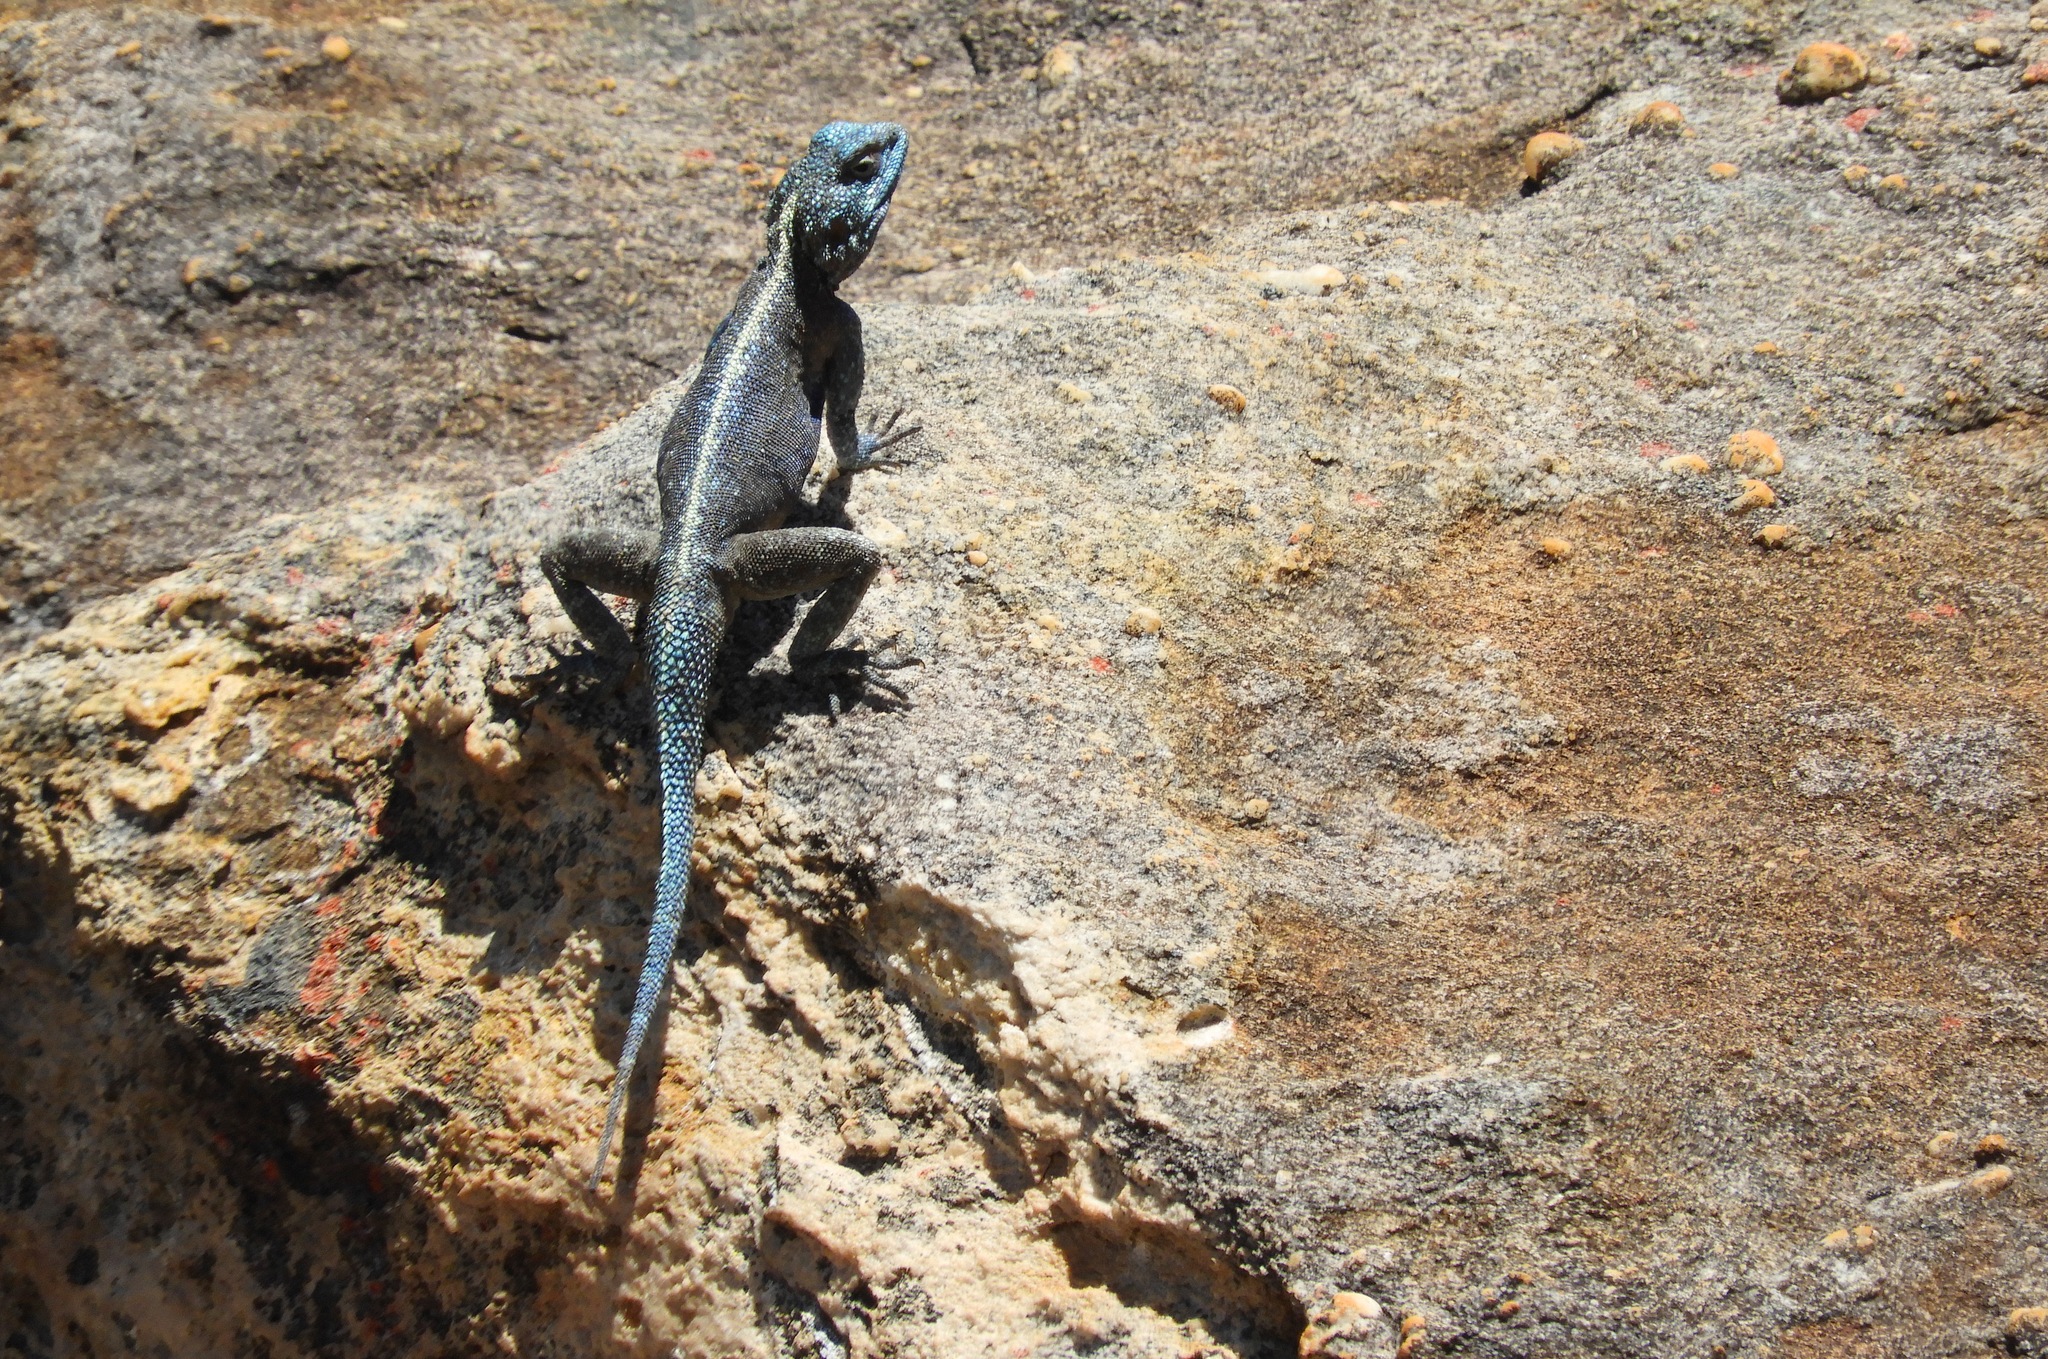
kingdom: Animalia
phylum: Chordata
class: Squamata
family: Agamidae
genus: Agama
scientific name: Agama atra
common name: Southern african rock agama
